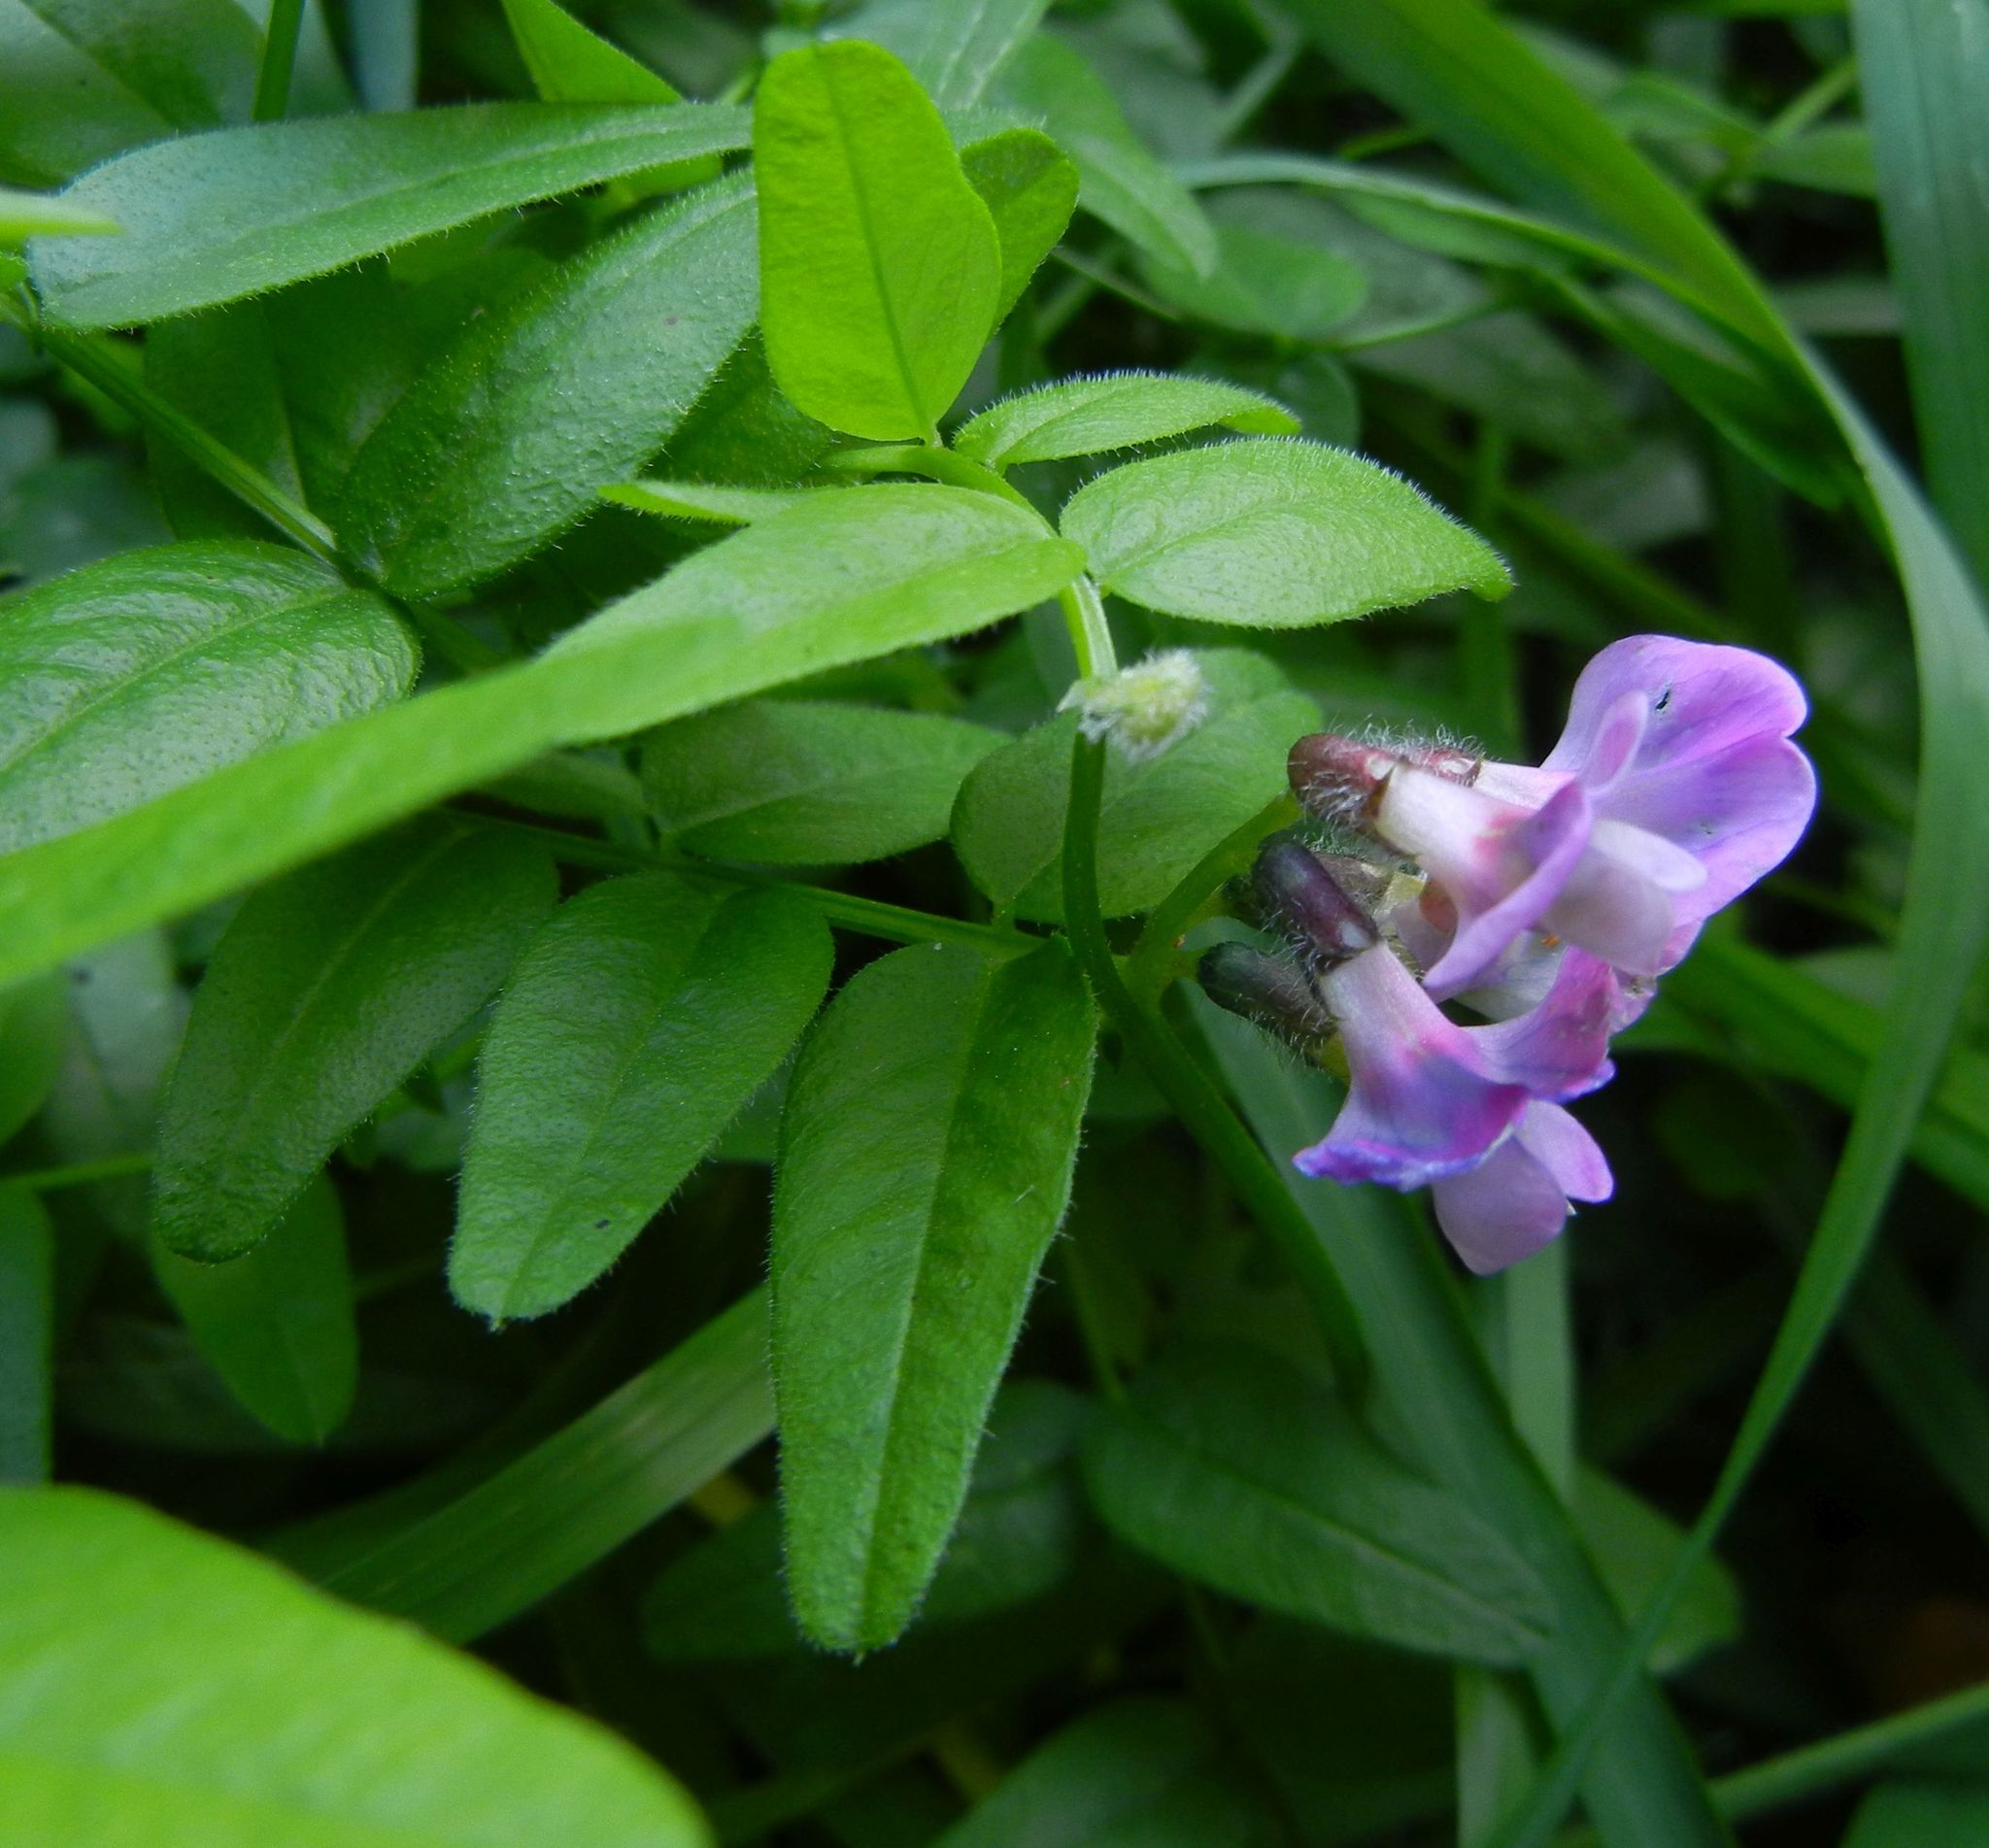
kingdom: Plantae
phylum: Tracheophyta
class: Magnoliopsida
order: Fabales
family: Fabaceae
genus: Vicia
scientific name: Vicia sepium
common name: Bush vetch
